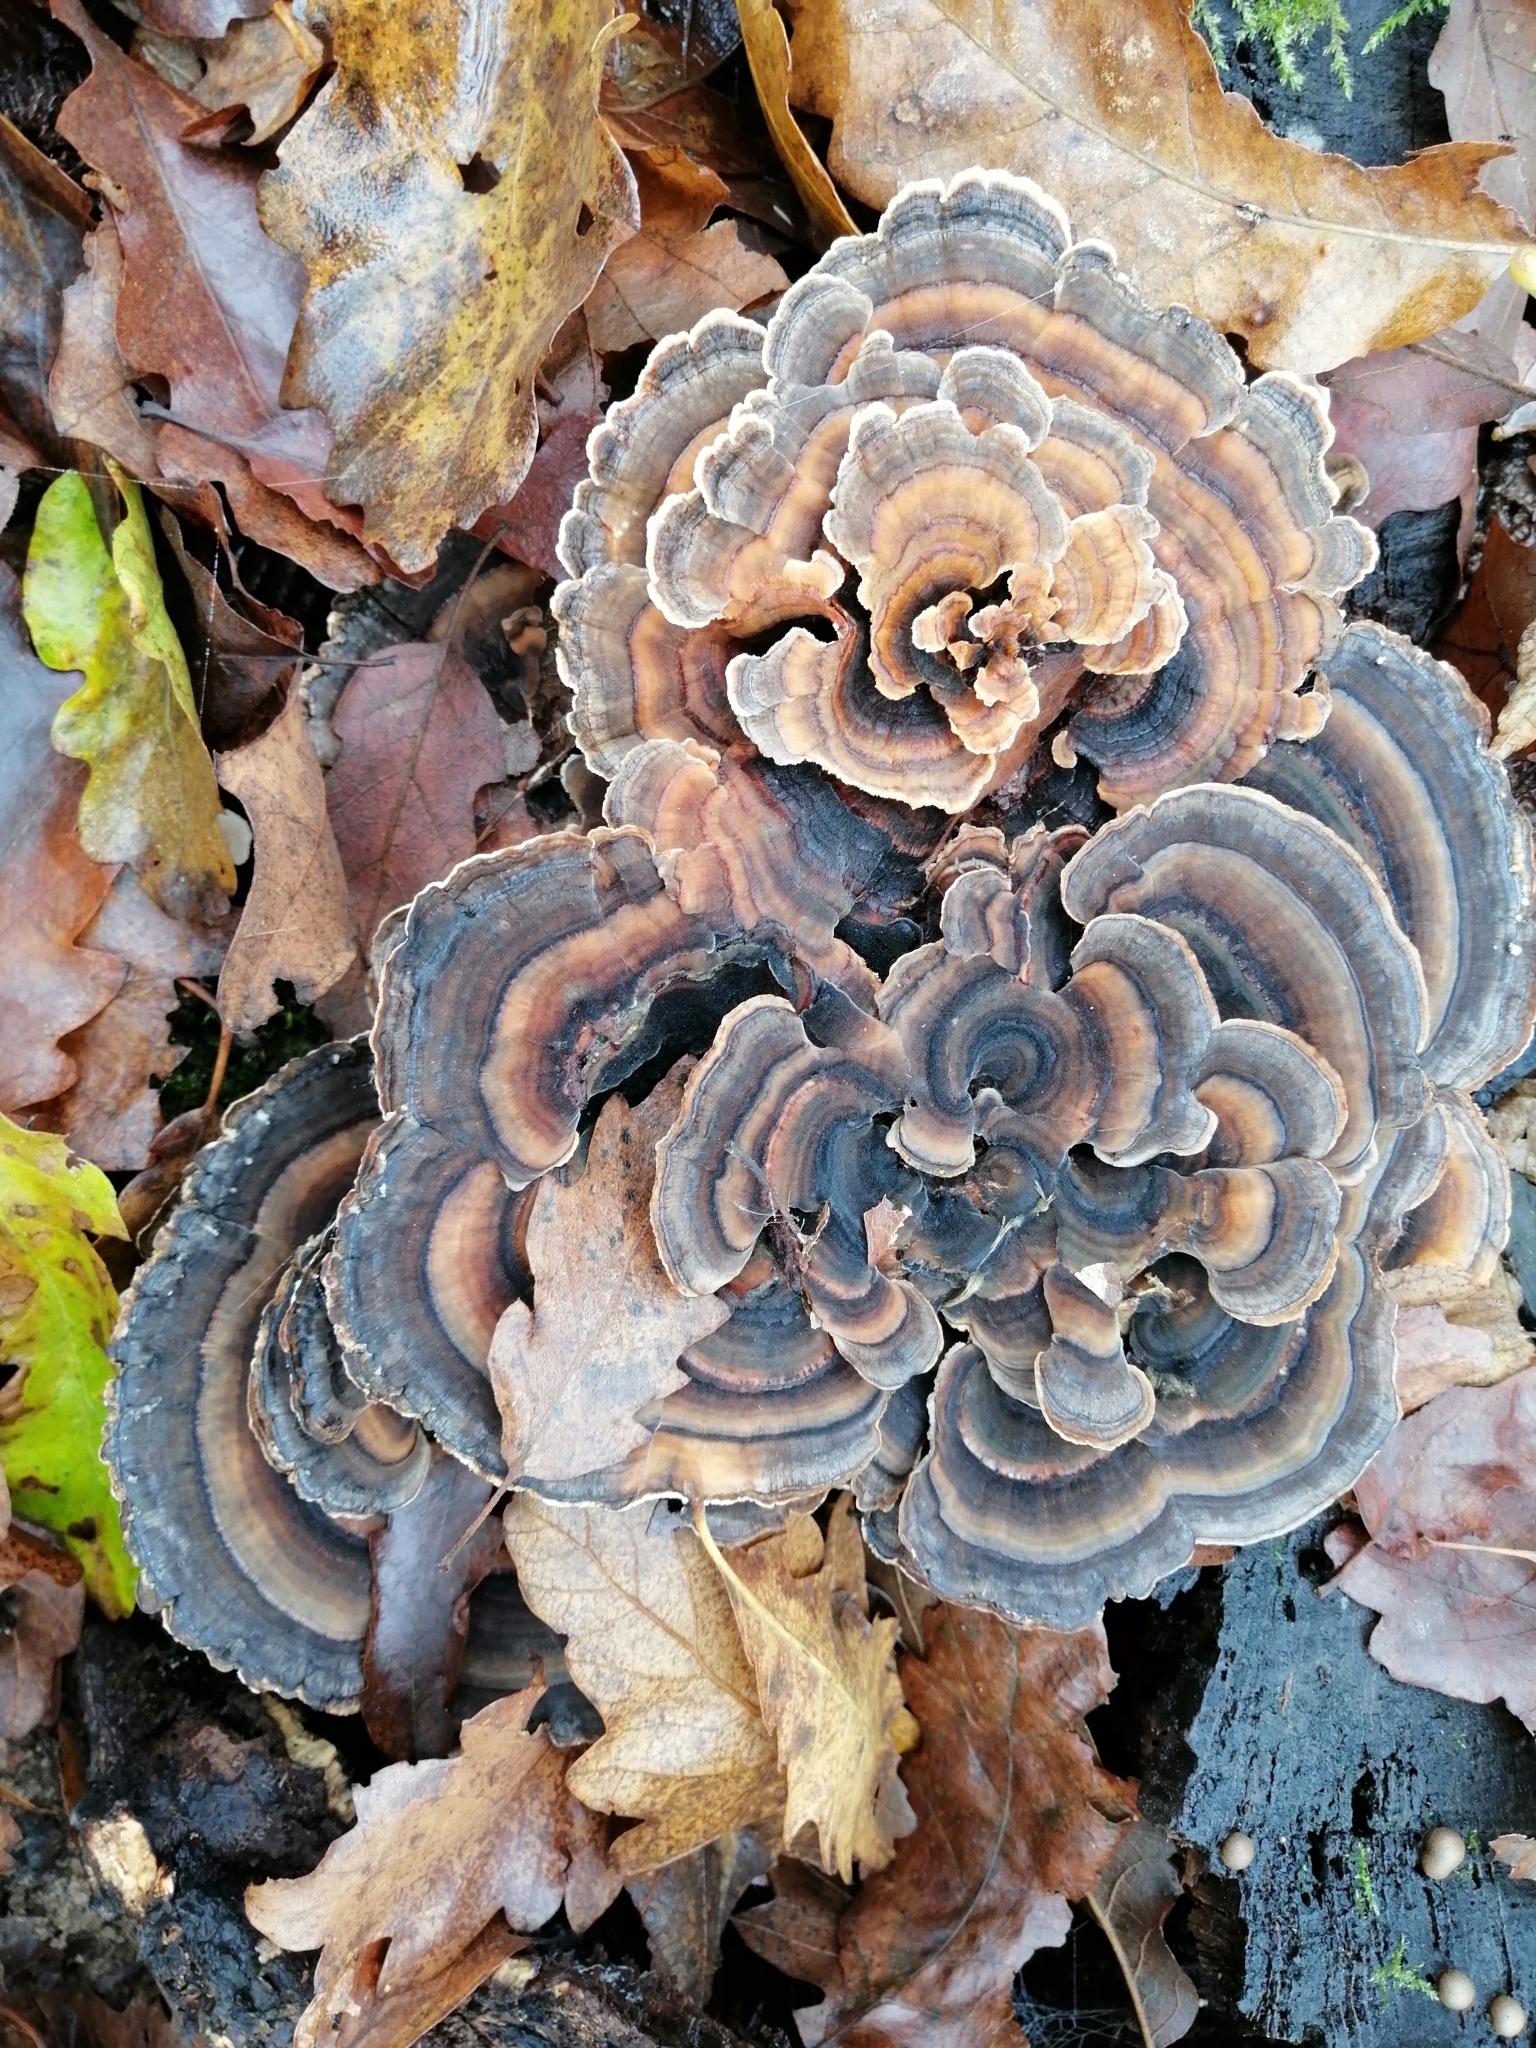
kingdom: Fungi
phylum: Basidiomycota
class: Agaricomycetes
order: Polyporales
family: Polyporaceae
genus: Trametes
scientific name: Trametes versicolor
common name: Turkeytail
